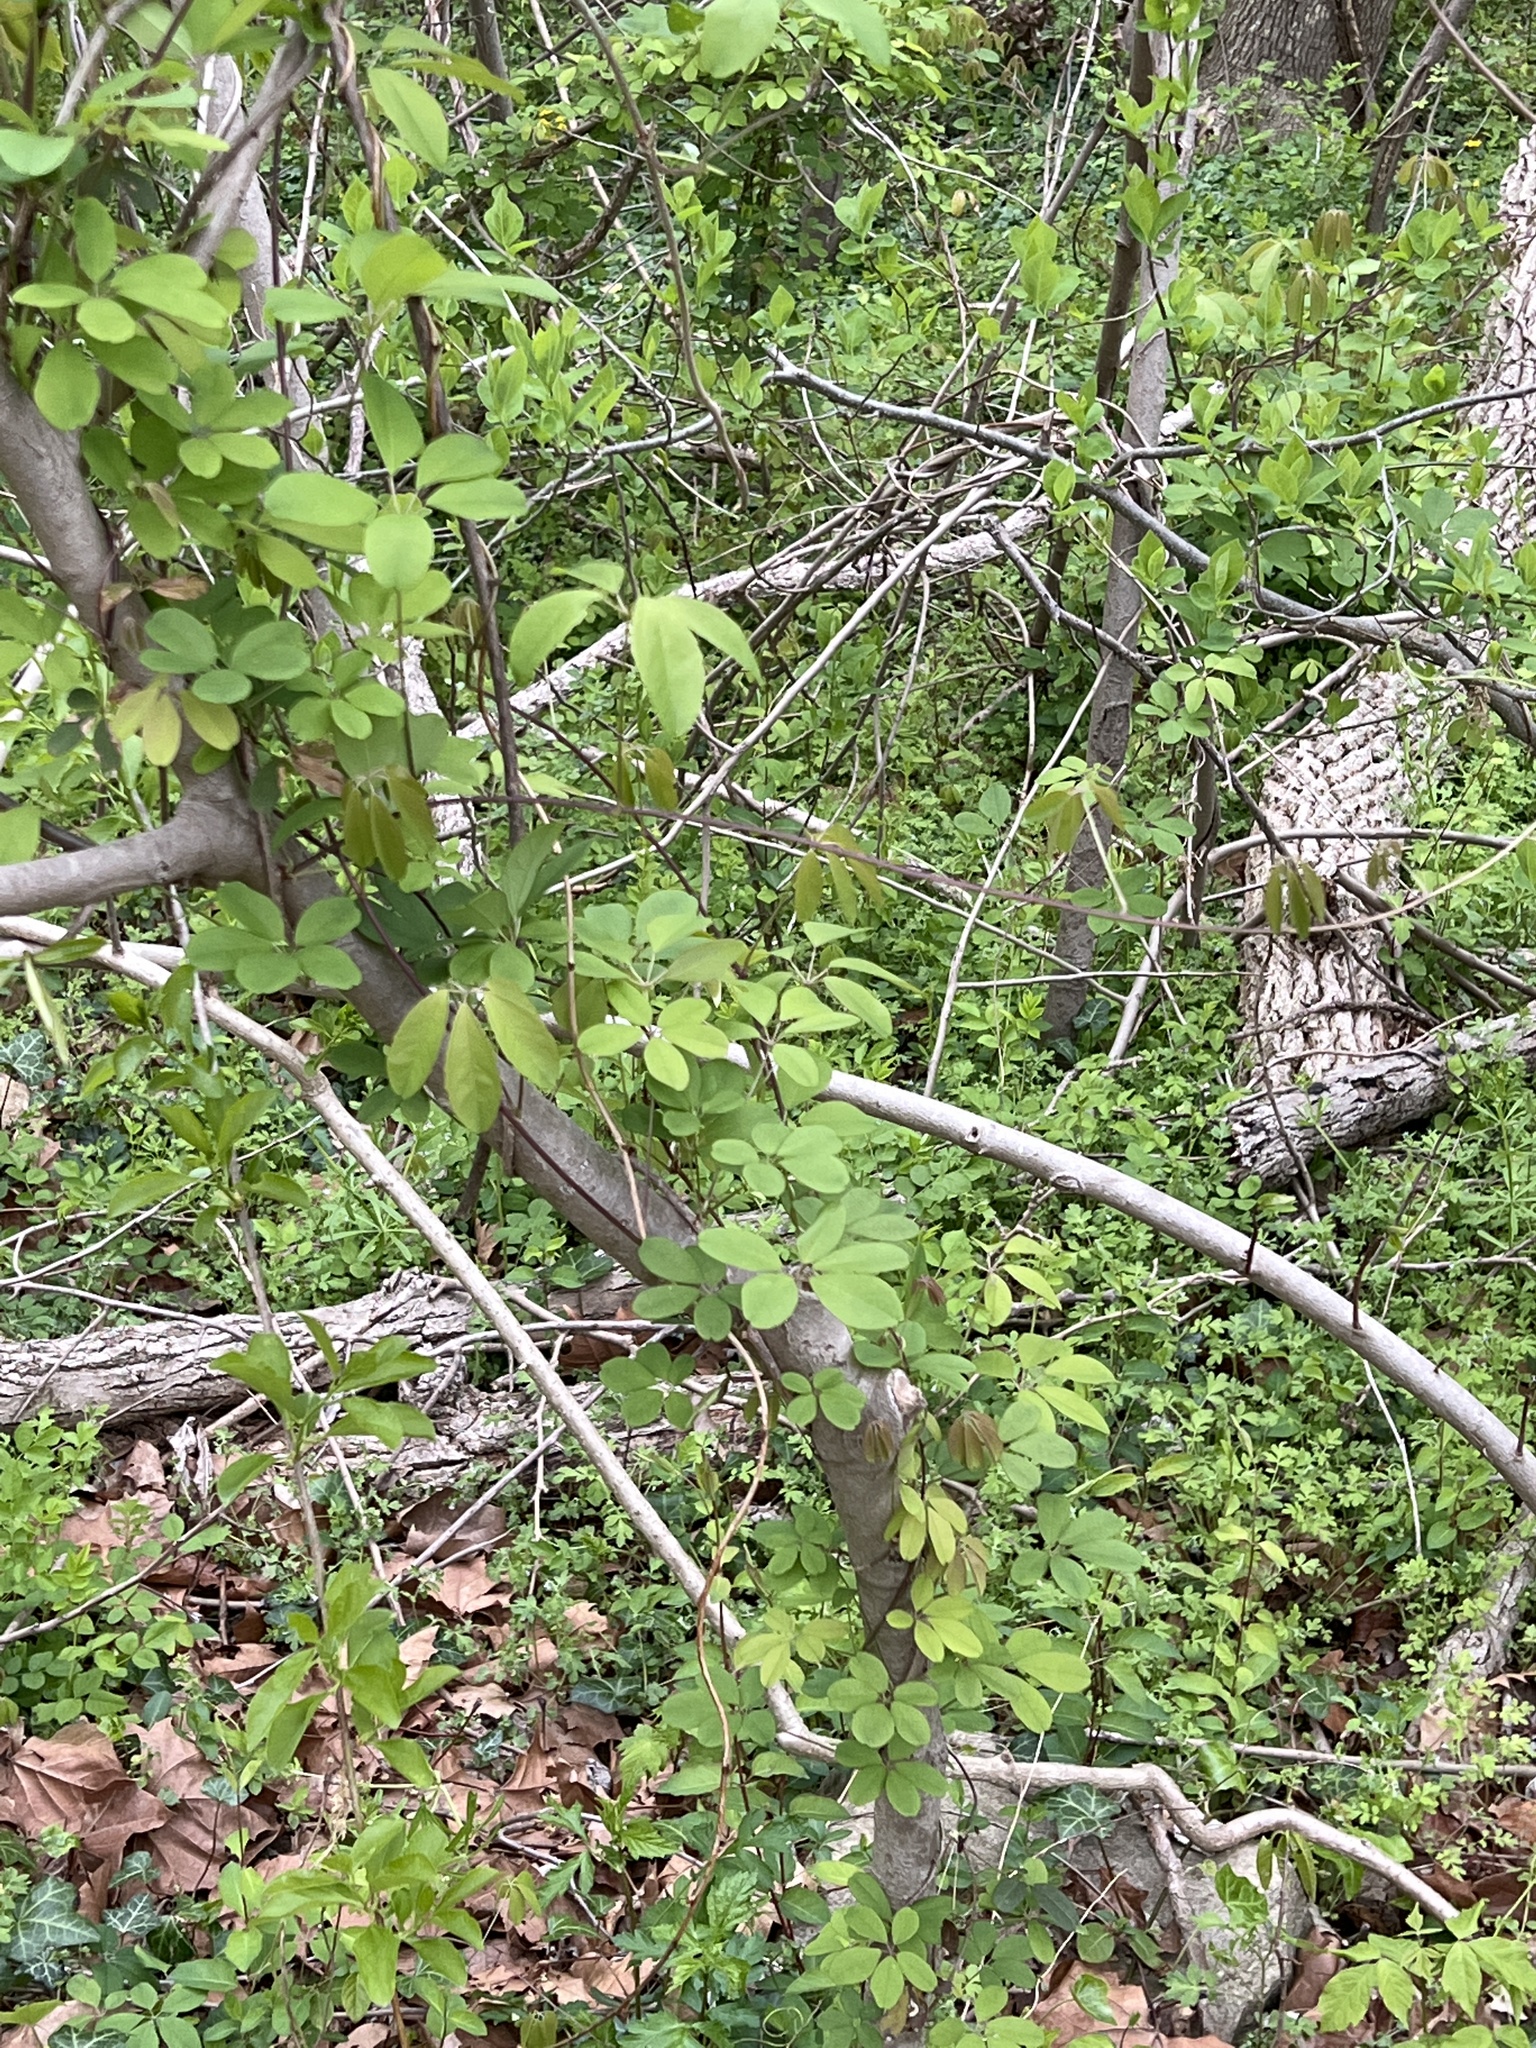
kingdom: Plantae
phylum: Tracheophyta
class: Magnoliopsida
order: Ranunculales
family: Lardizabalaceae
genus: Akebia
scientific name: Akebia quinata
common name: Five-leaf akebia
